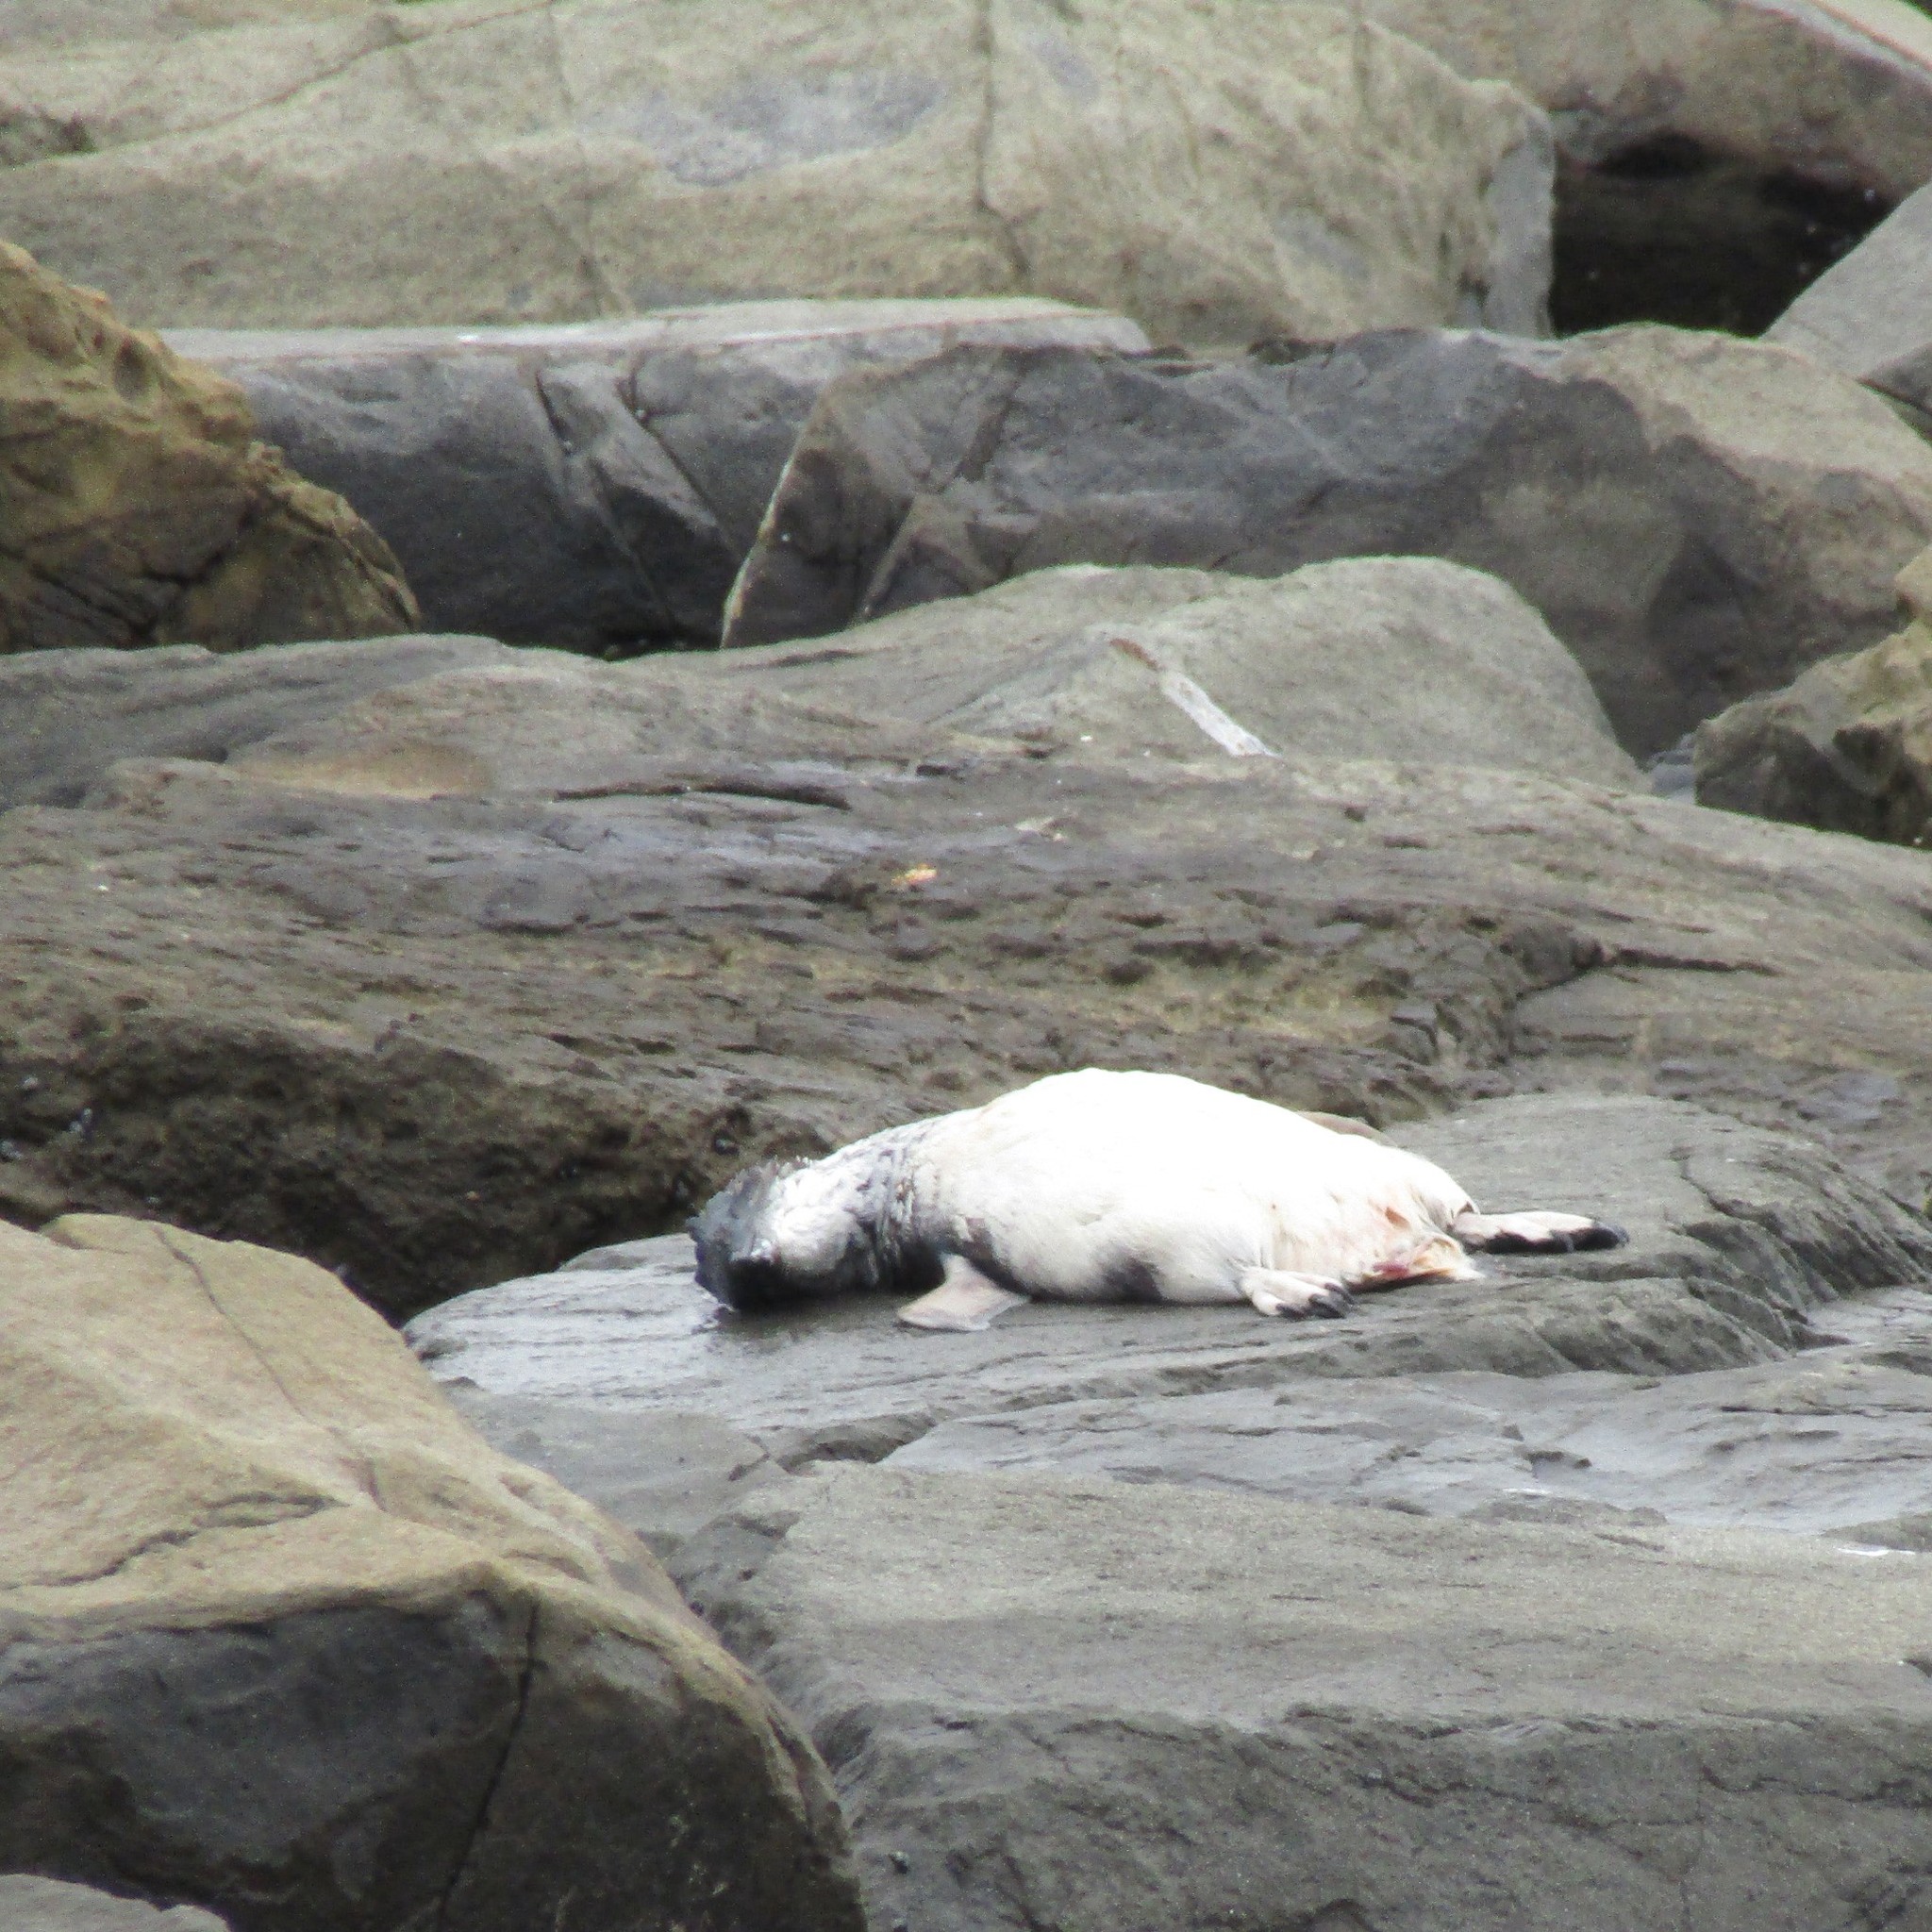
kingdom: Animalia
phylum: Chordata
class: Aves
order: Sphenisciformes
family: Spheniscidae
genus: Eudyptula
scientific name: Eudyptula minor
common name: Little penguin
